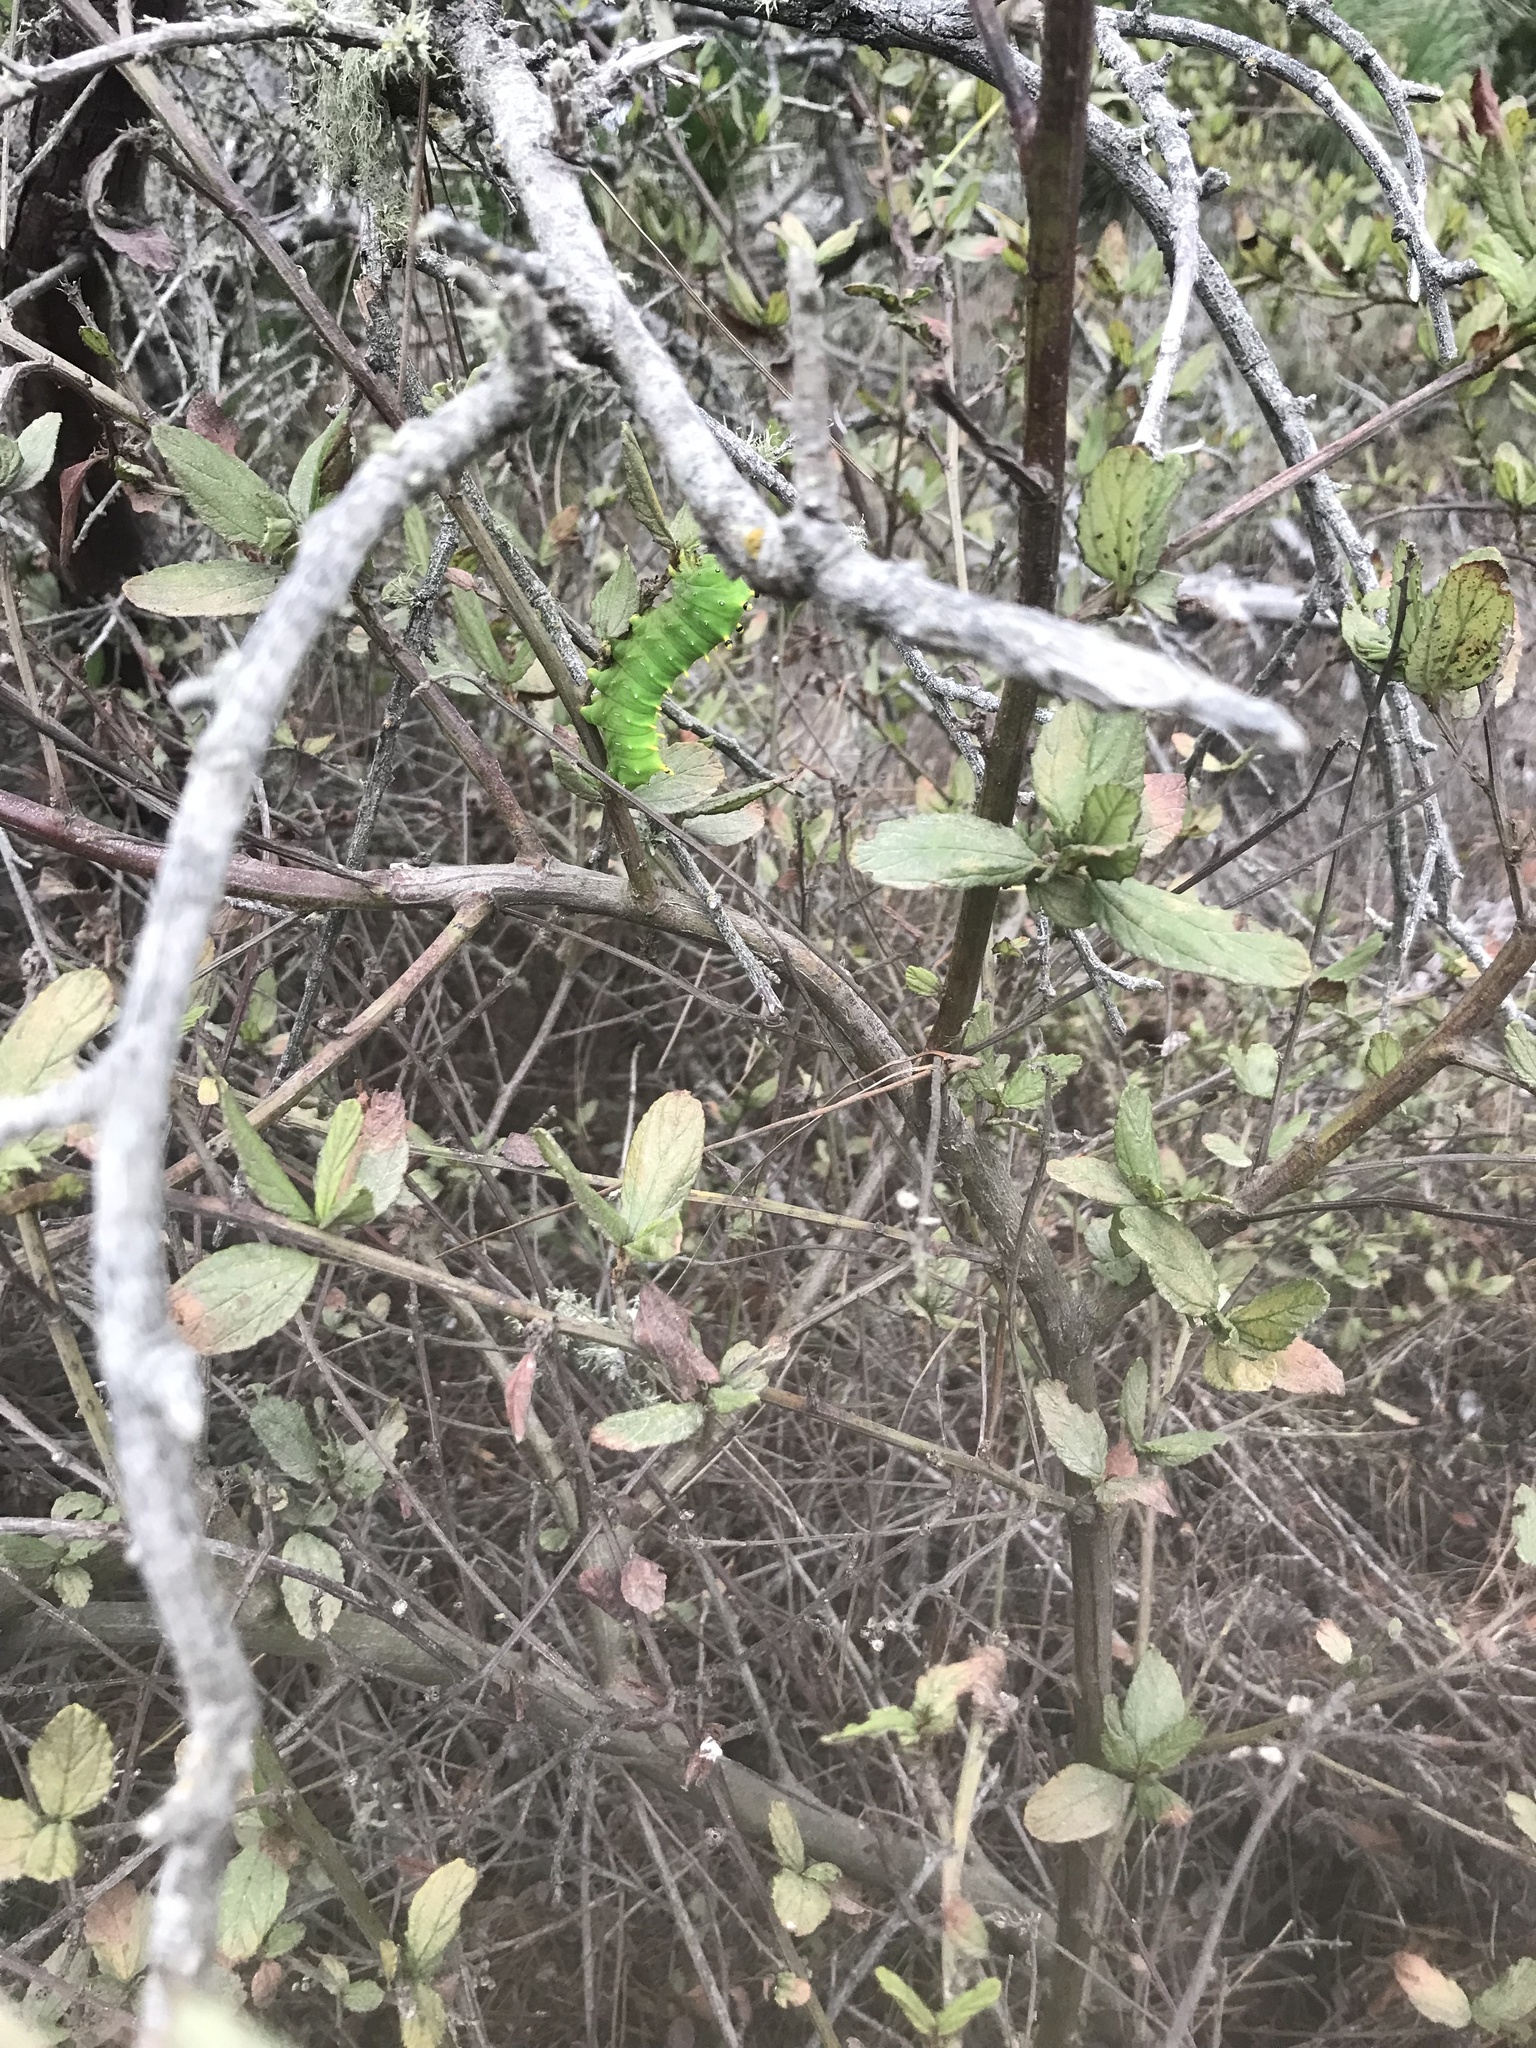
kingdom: Animalia
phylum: Arthropoda
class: Insecta
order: Lepidoptera
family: Saturniidae
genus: Hyalophora
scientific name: Hyalophora euryalus
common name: Ceanothus silkmoth
